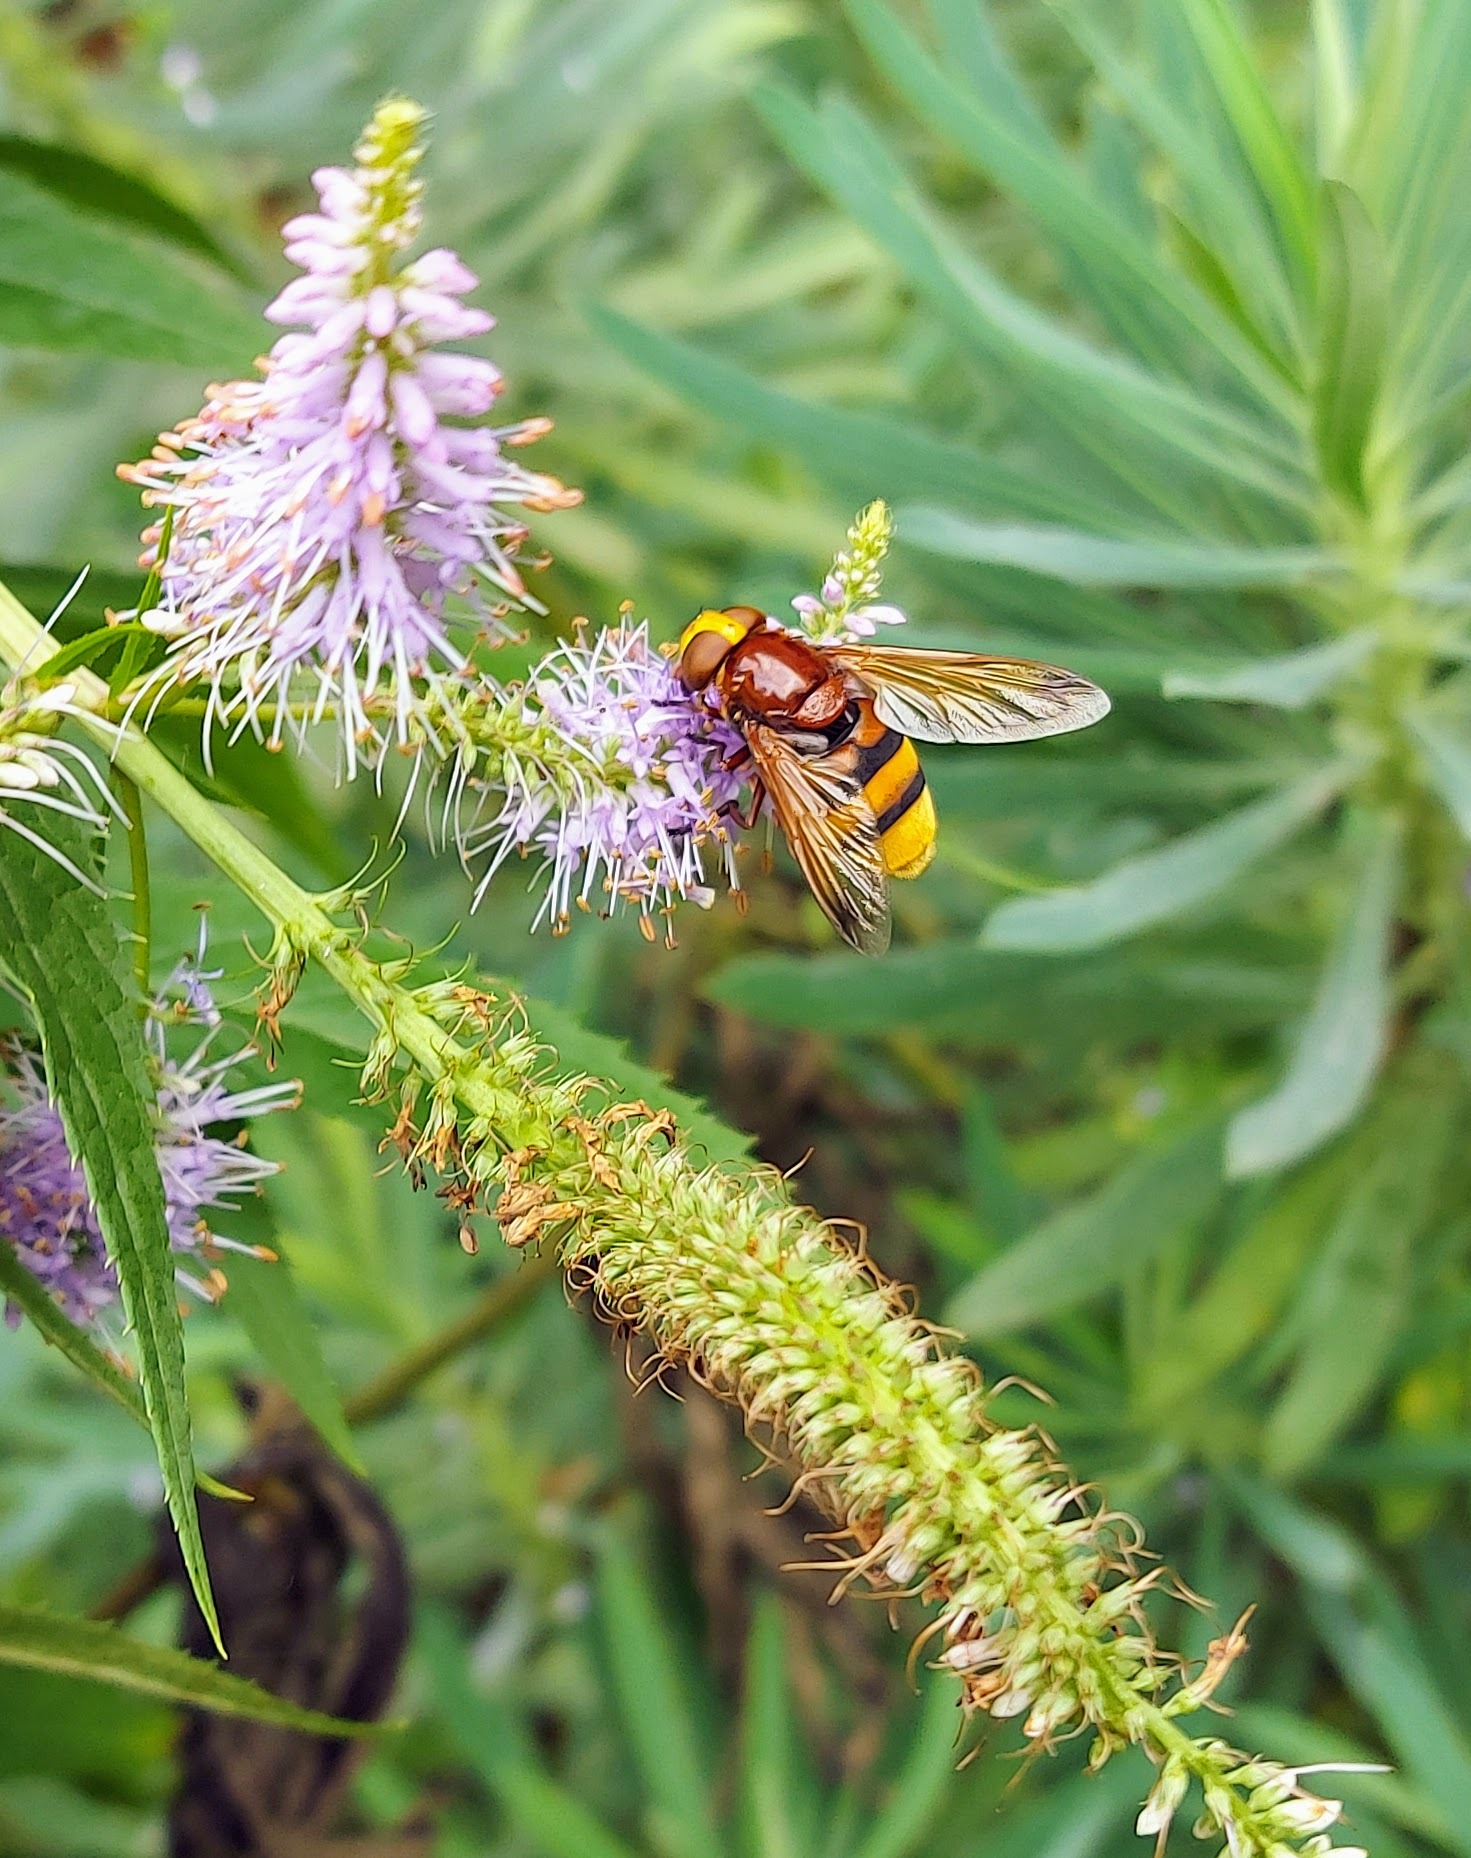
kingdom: Animalia
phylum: Arthropoda
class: Insecta
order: Diptera
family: Syrphidae
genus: Volucella
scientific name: Volucella zonaria
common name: Hornet hoverfly
